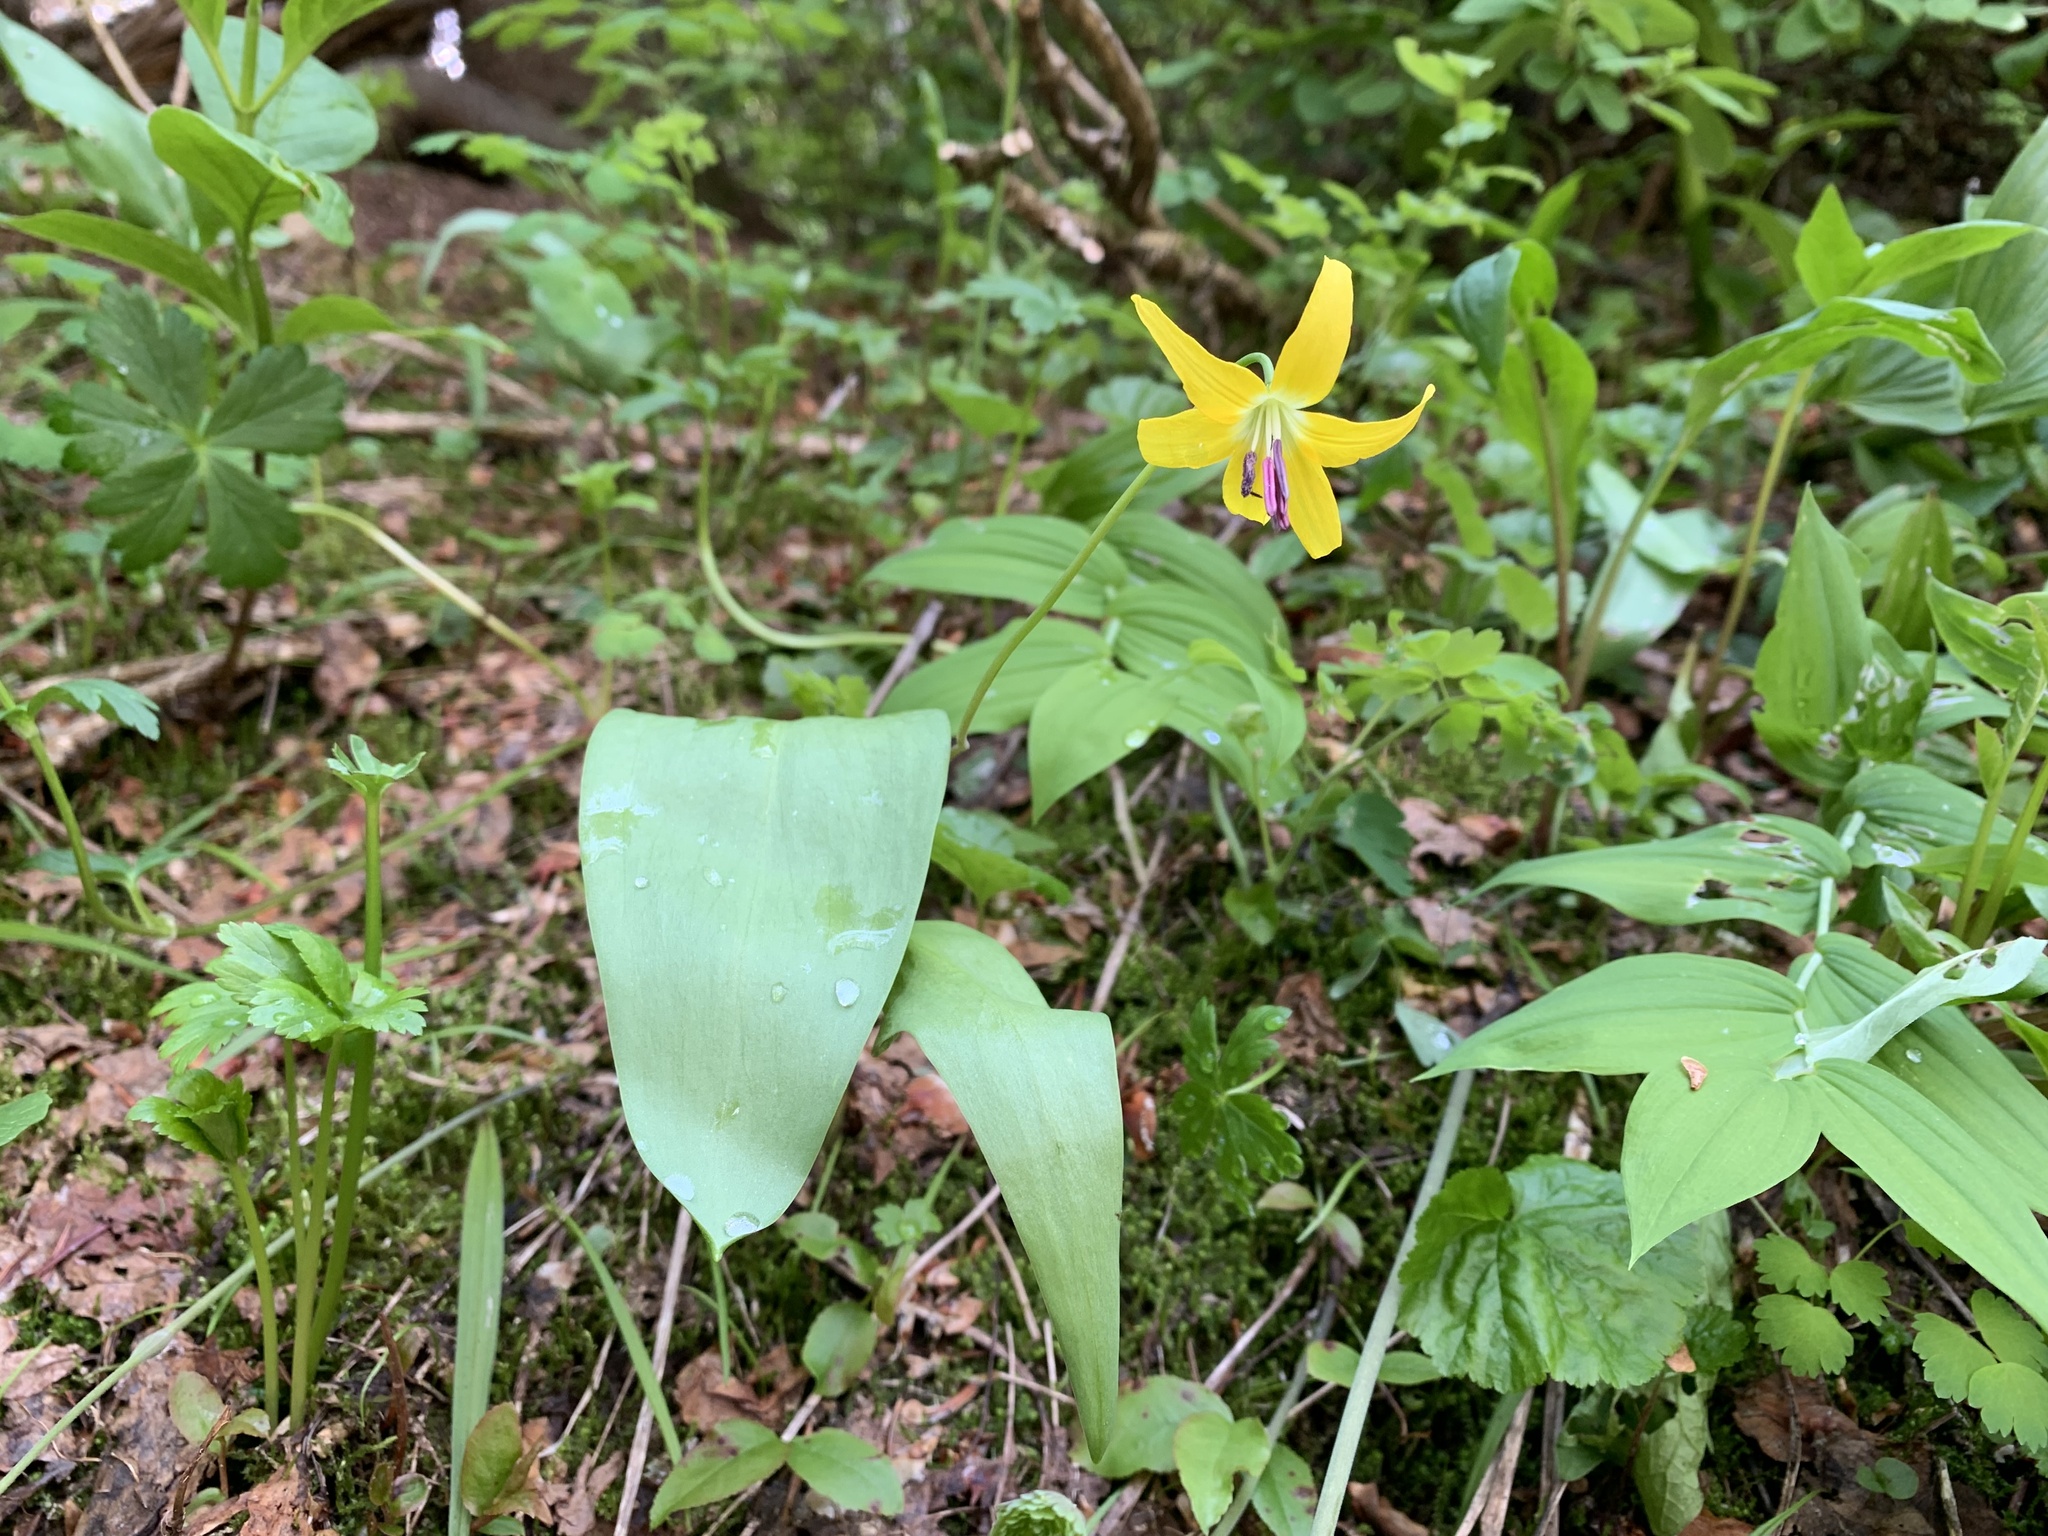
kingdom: Plantae
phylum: Tracheophyta
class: Liliopsida
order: Liliales
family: Liliaceae
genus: Erythronium
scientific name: Erythronium grandiflorum
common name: Avalanche-lily
